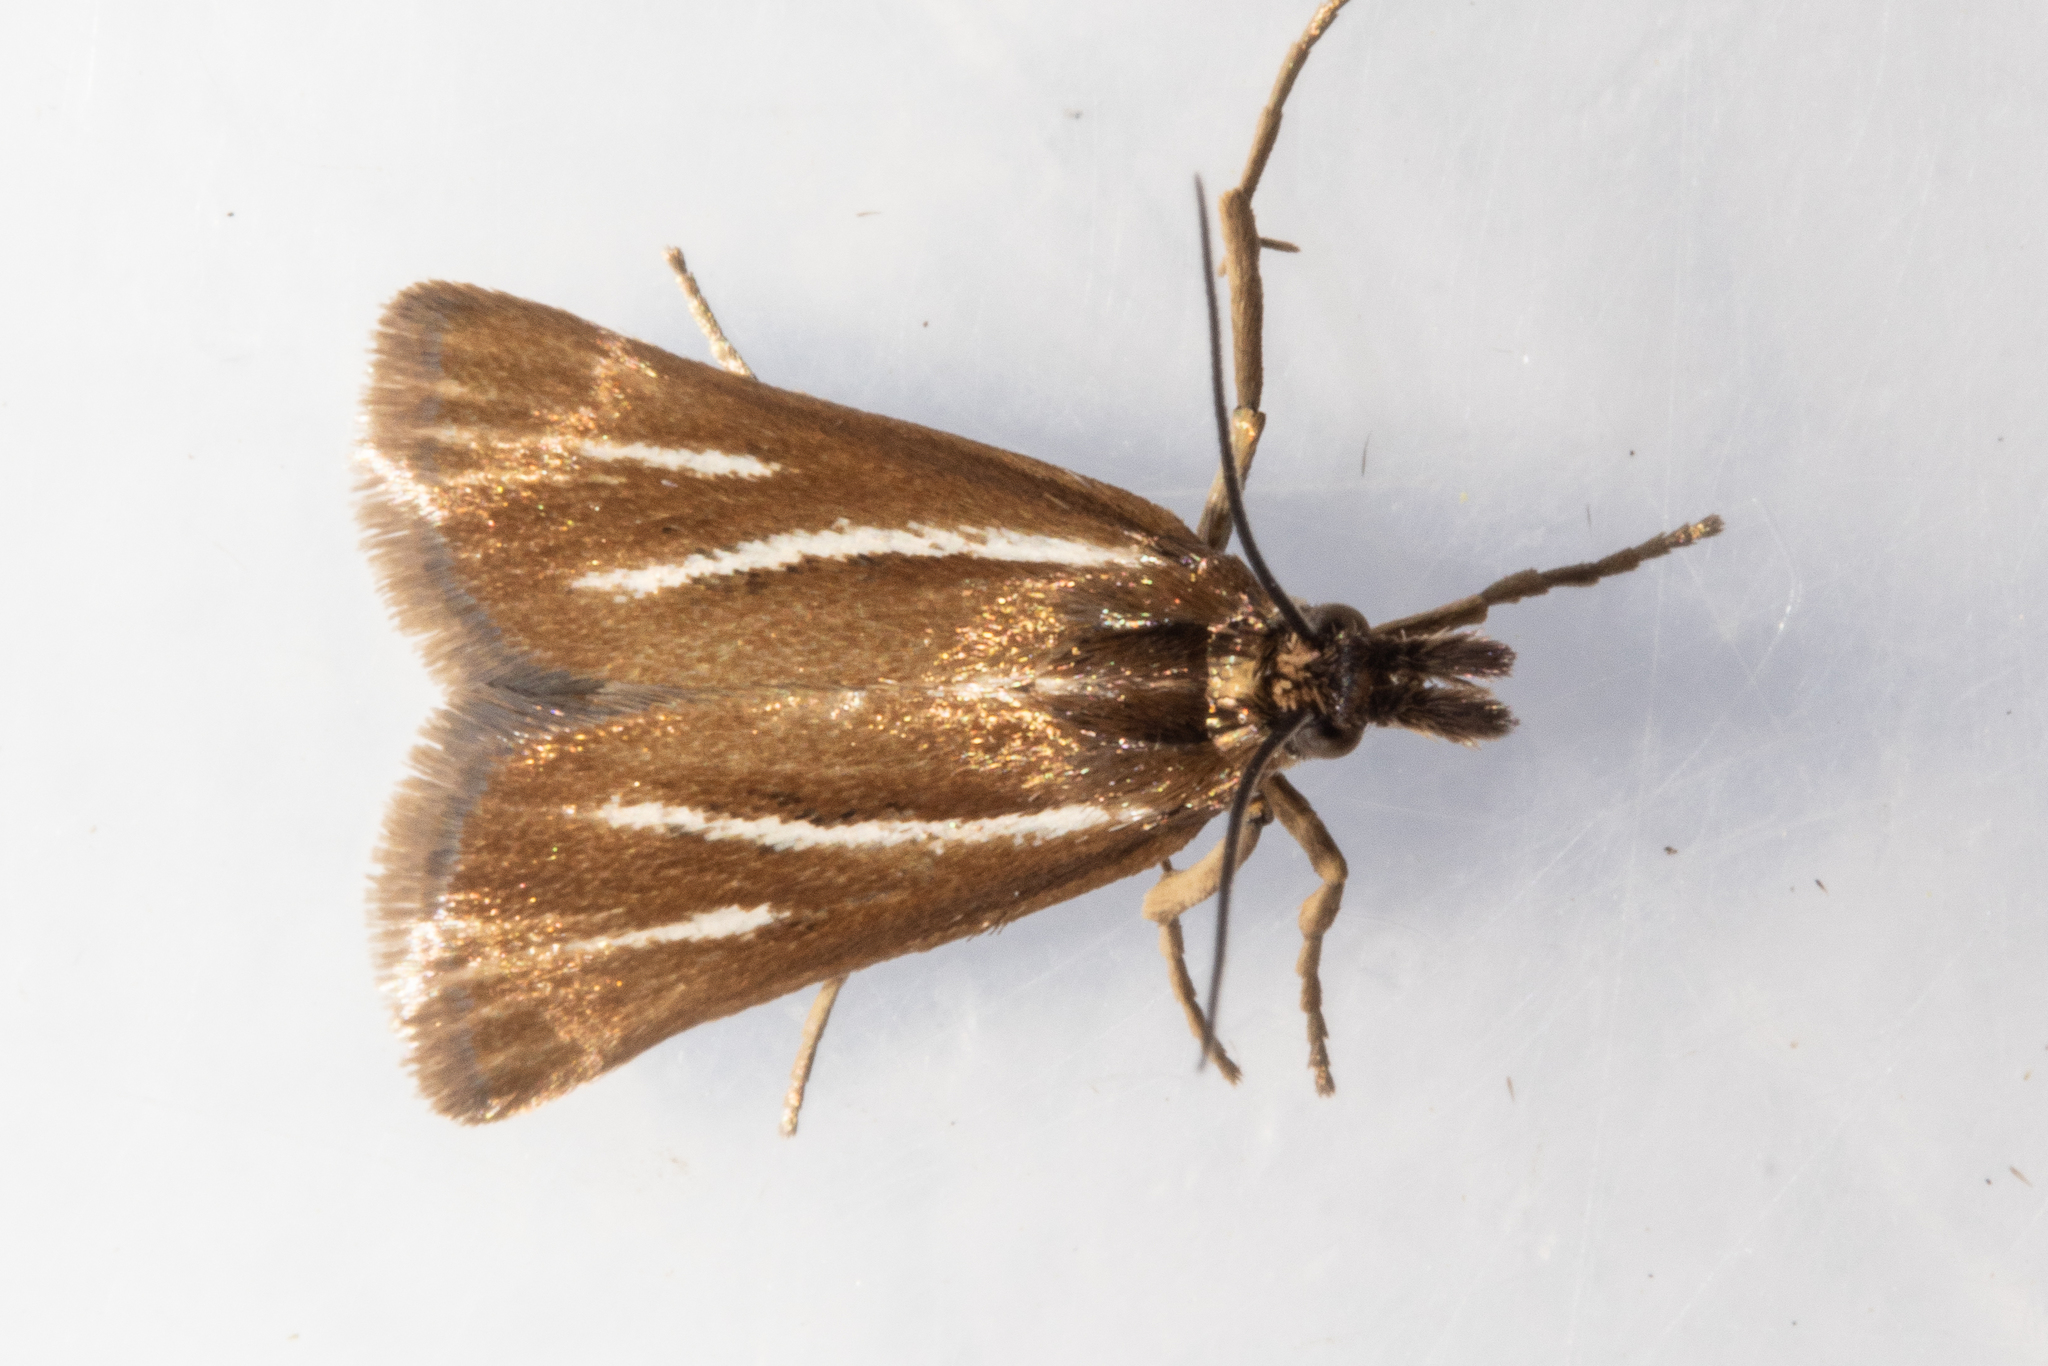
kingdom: Animalia
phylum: Arthropoda
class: Insecta
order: Lepidoptera
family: Crambidae
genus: Orocrambus
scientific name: Orocrambus heliotes
